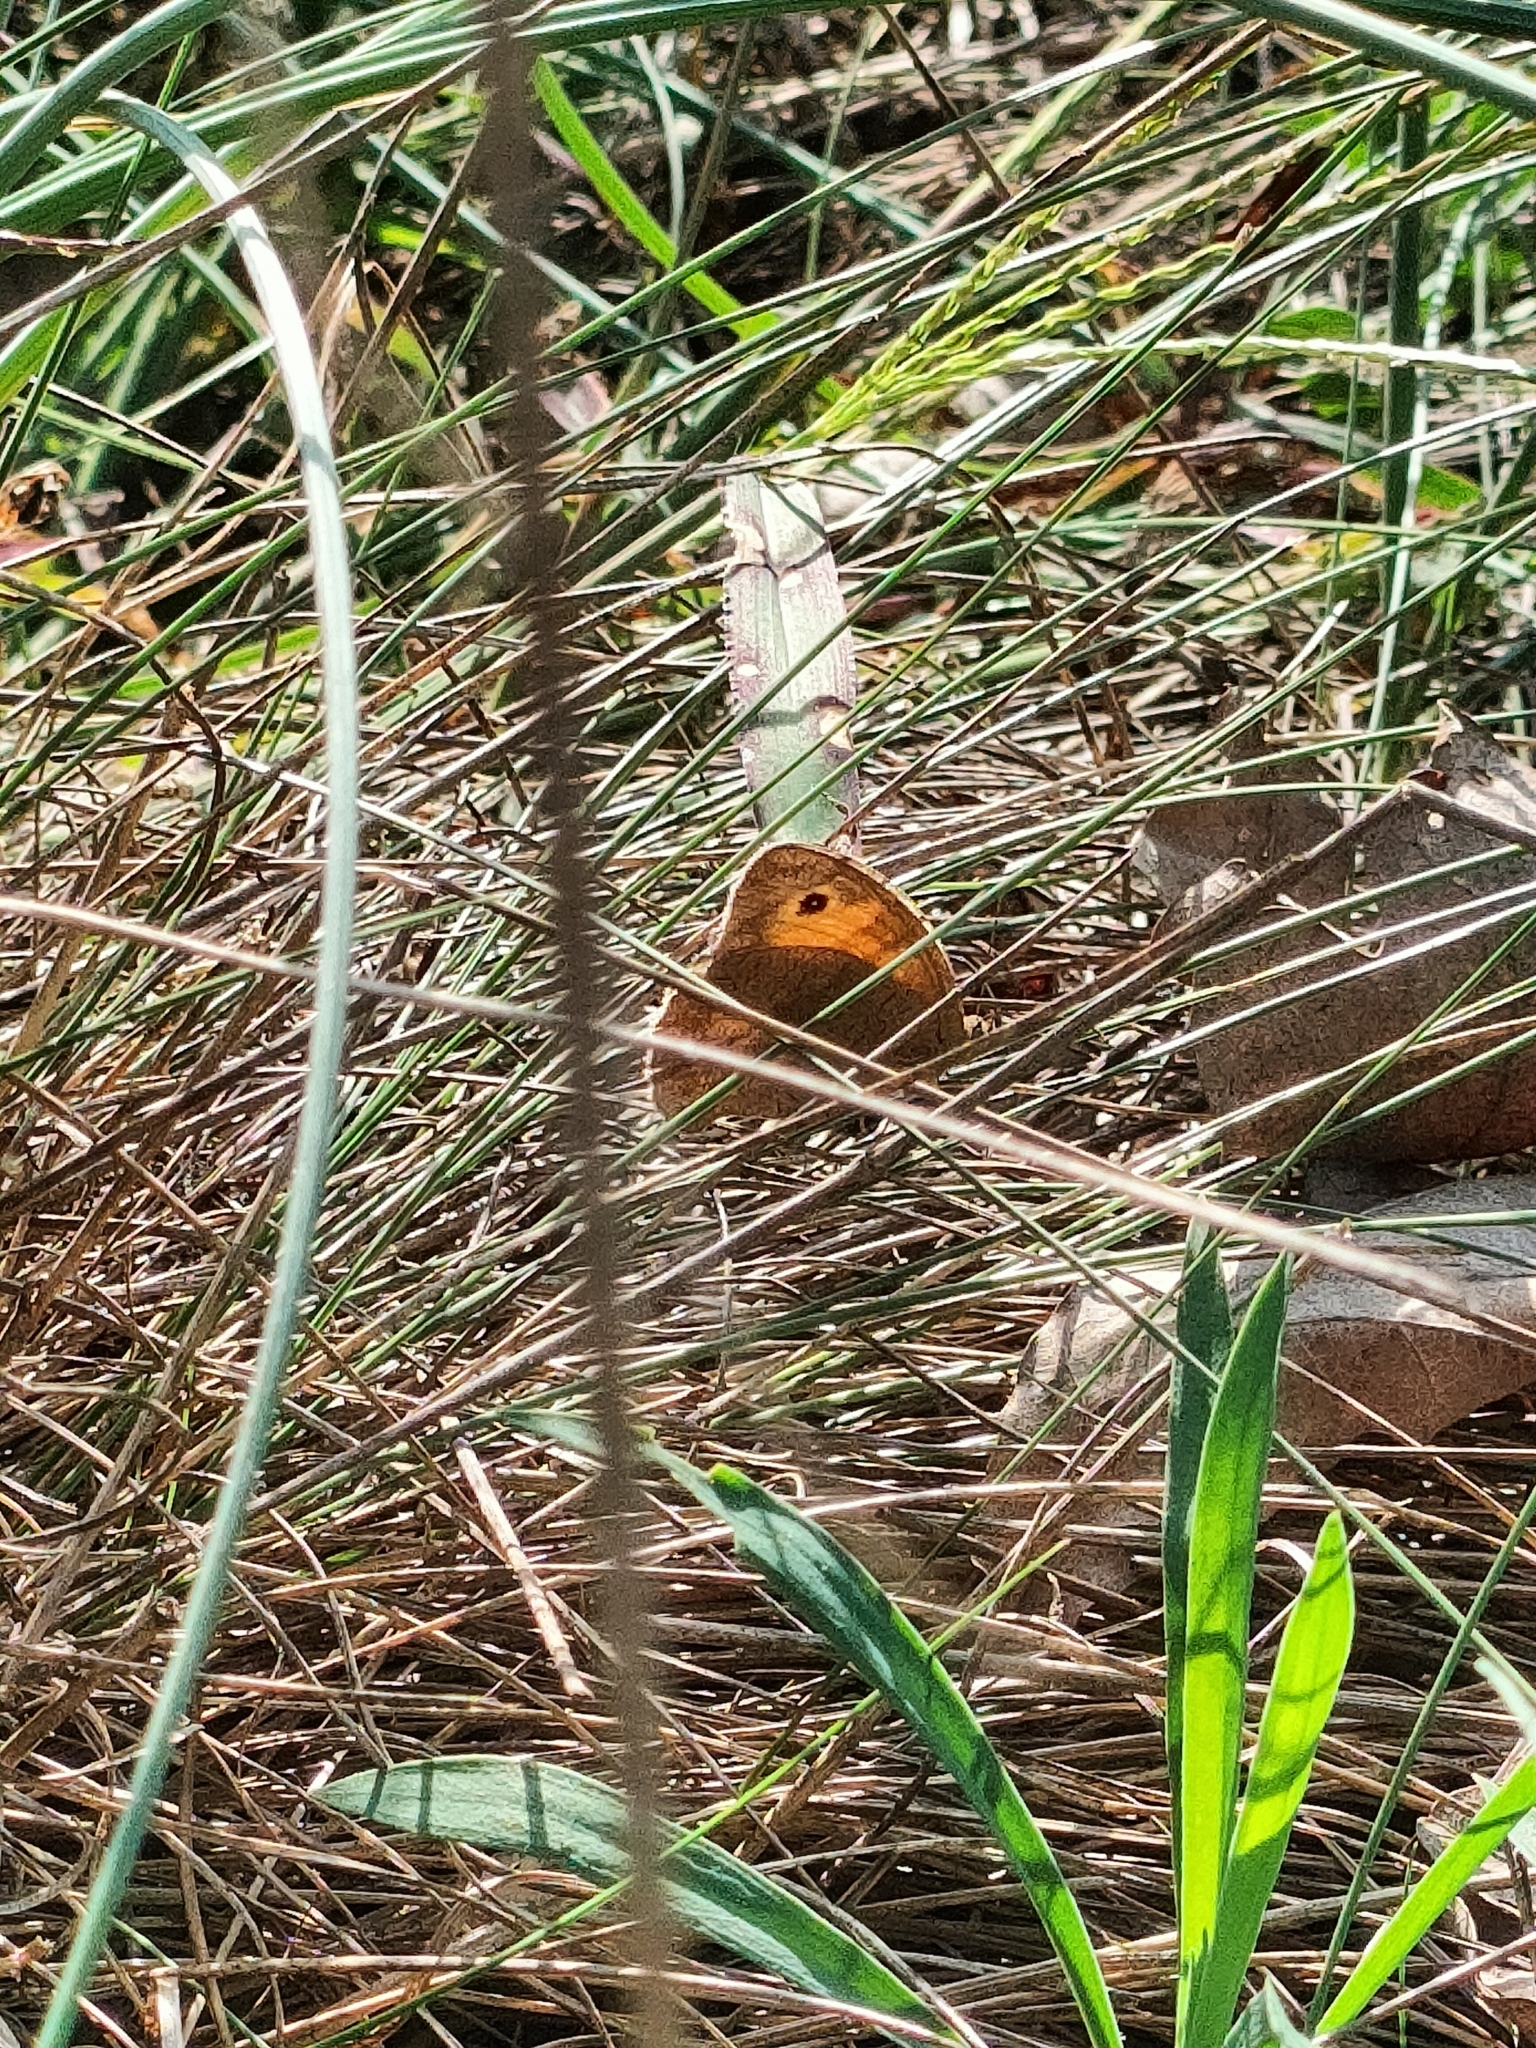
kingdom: Animalia
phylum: Arthropoda
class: Insecta
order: Lepidoptera
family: Nymphalidae
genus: Maniola
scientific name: Maniola jurtina
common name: Meadow brown
